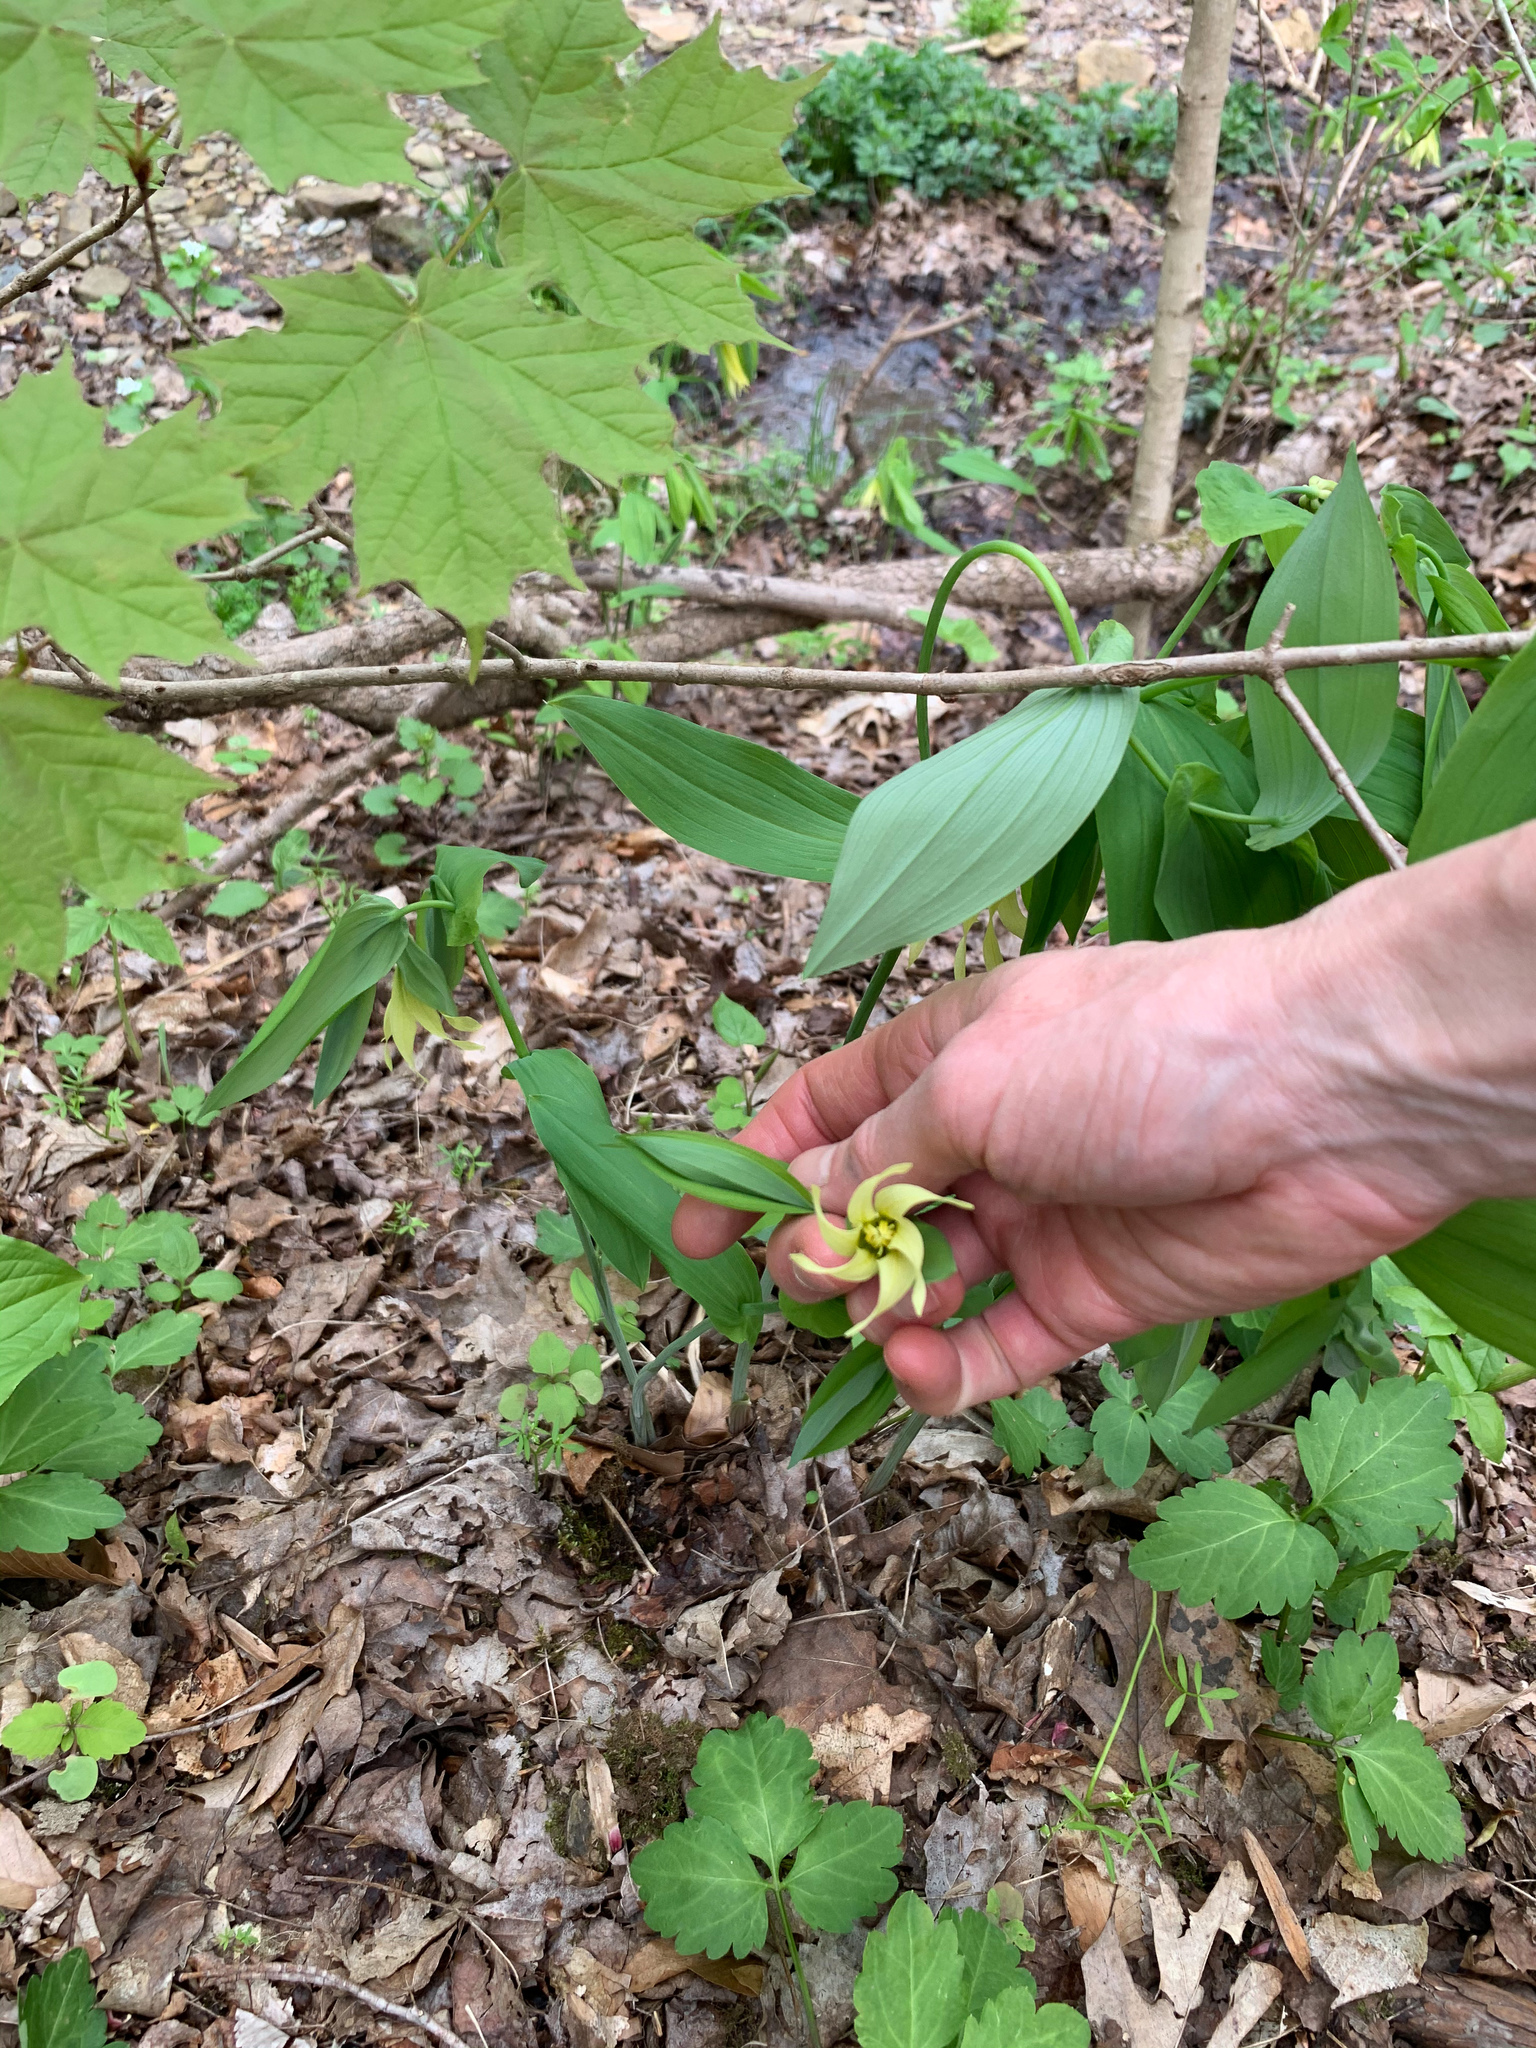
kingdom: Plantae
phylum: Tracheophyta
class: Liliopsida
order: Liliales
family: Colchicaceae
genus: Uvularia
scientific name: Uvularia grandiflora
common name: Bellwort
